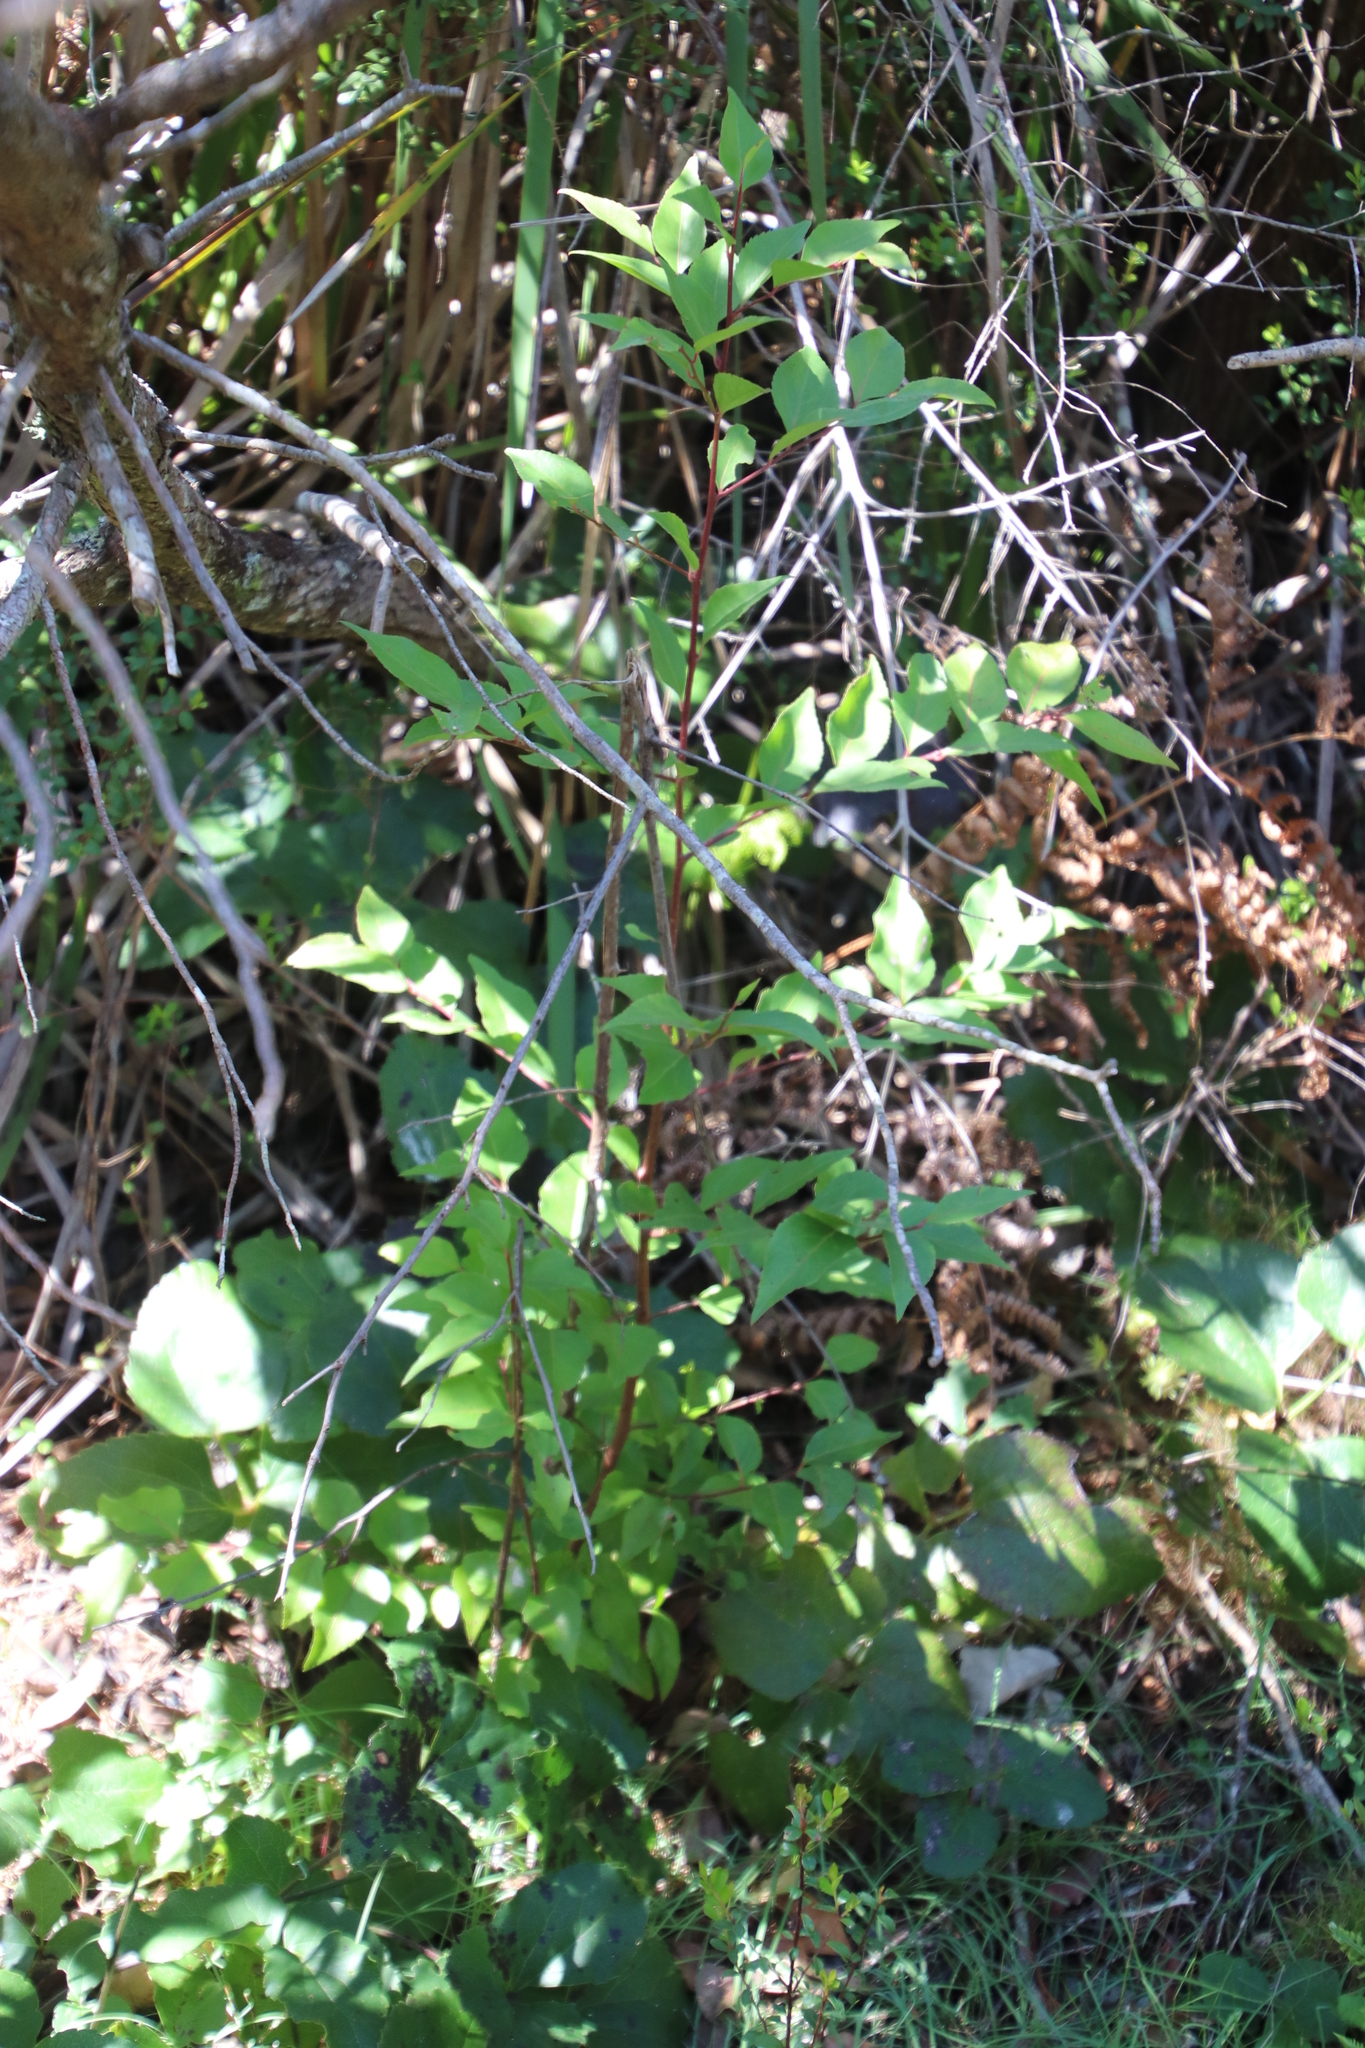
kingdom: Plantae
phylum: Tracheophyta
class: Magnoliopsida
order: Celastrales
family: Celastraceae
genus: Gymnosporia
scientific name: Gymnosporia acuminata
